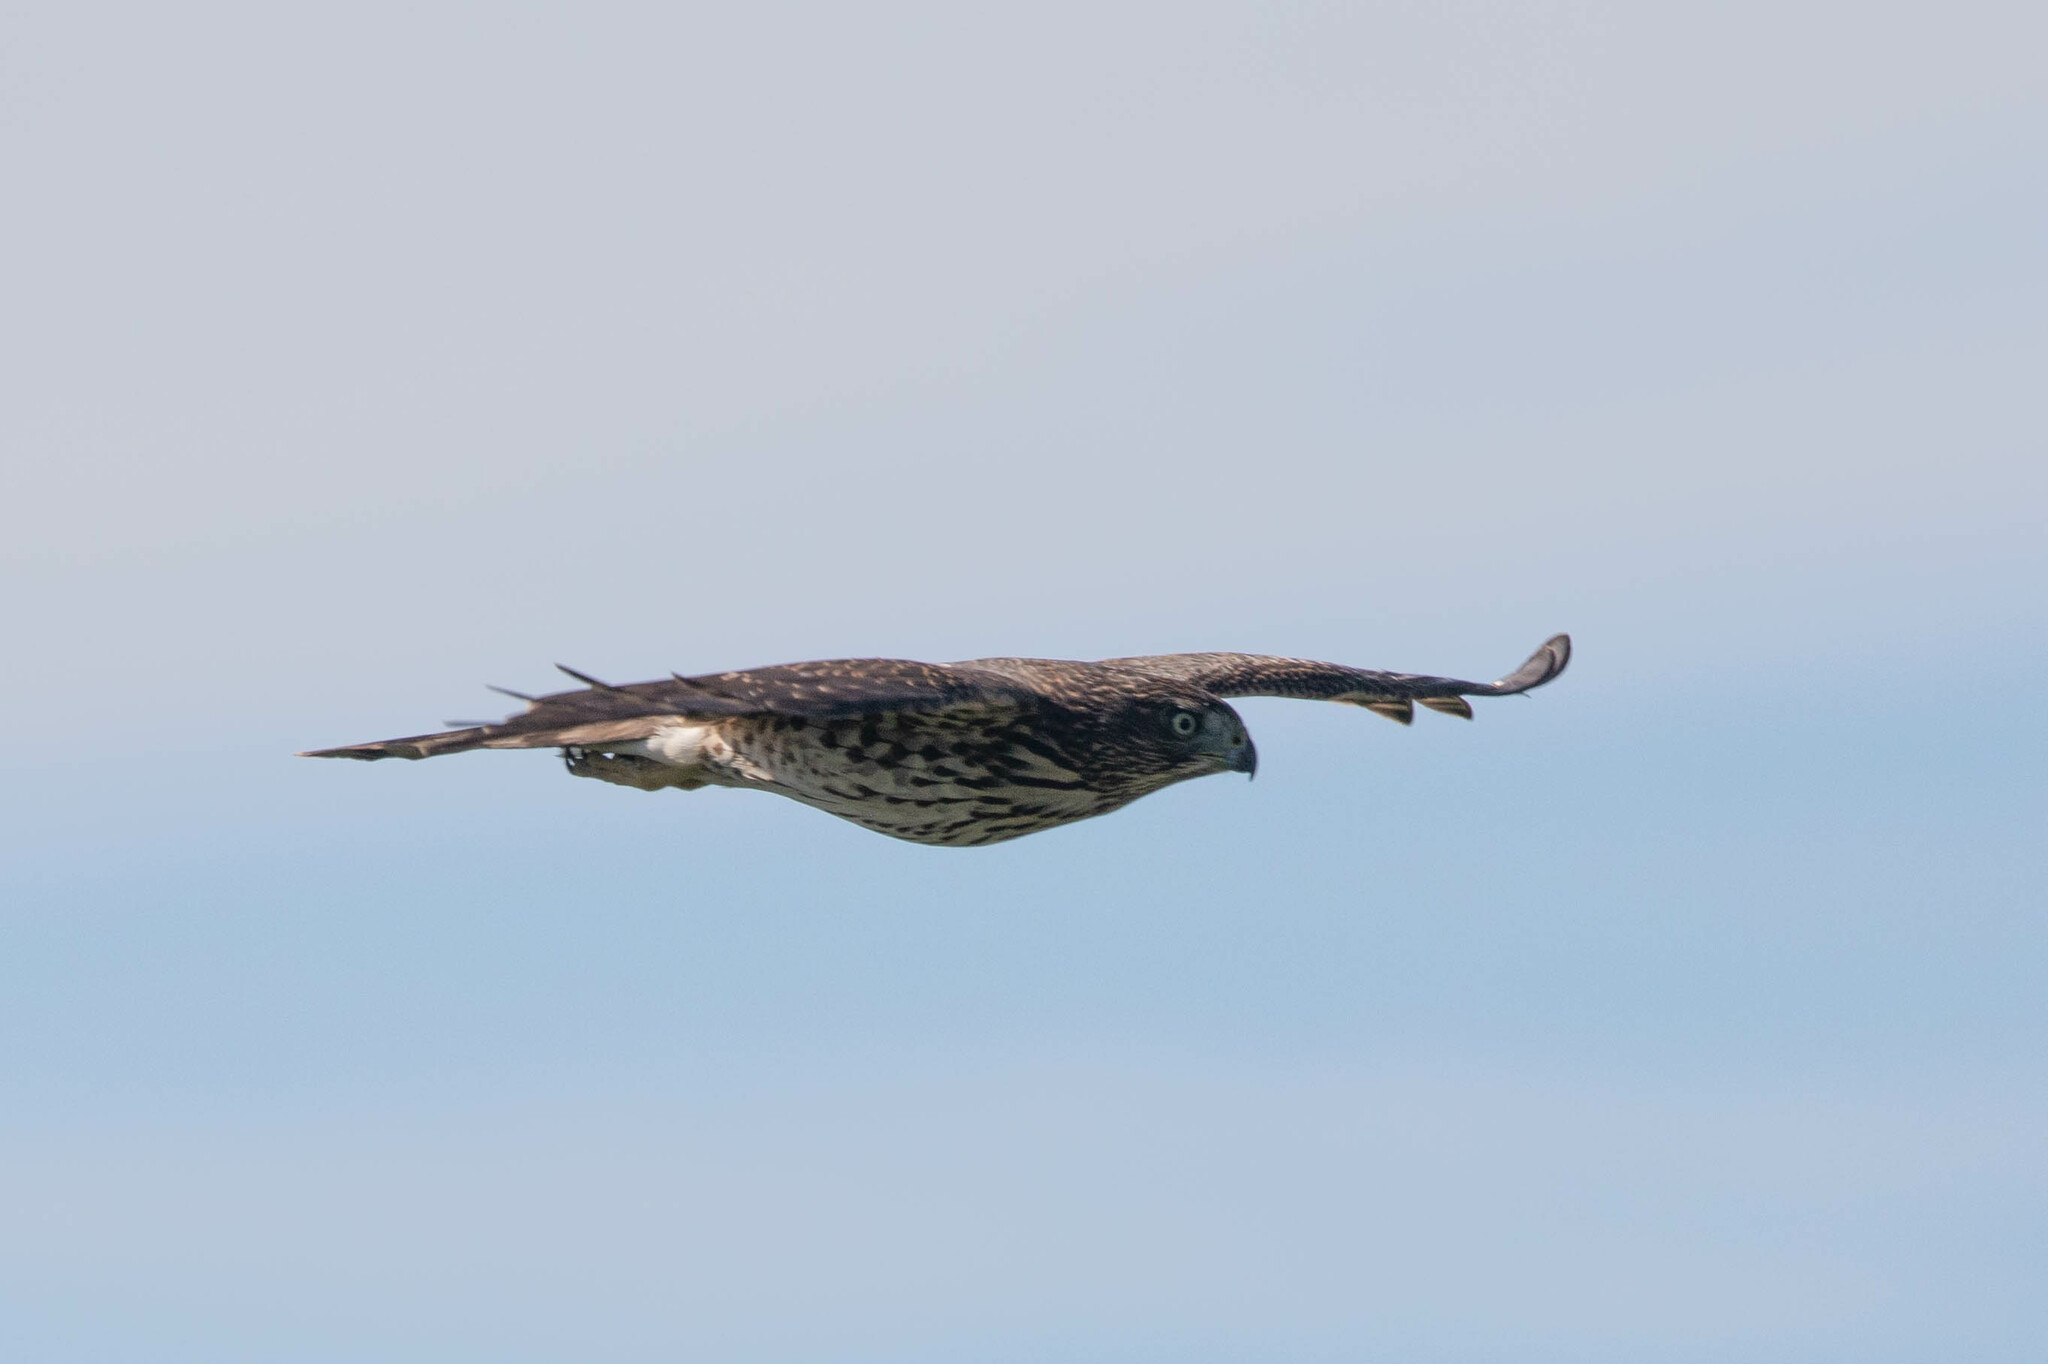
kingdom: Animalia
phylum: Chordata
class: Aves
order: Accipitriformes
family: Accipitridae
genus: Accipiter
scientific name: Accipiter cooperii
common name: Cooper's hawk
